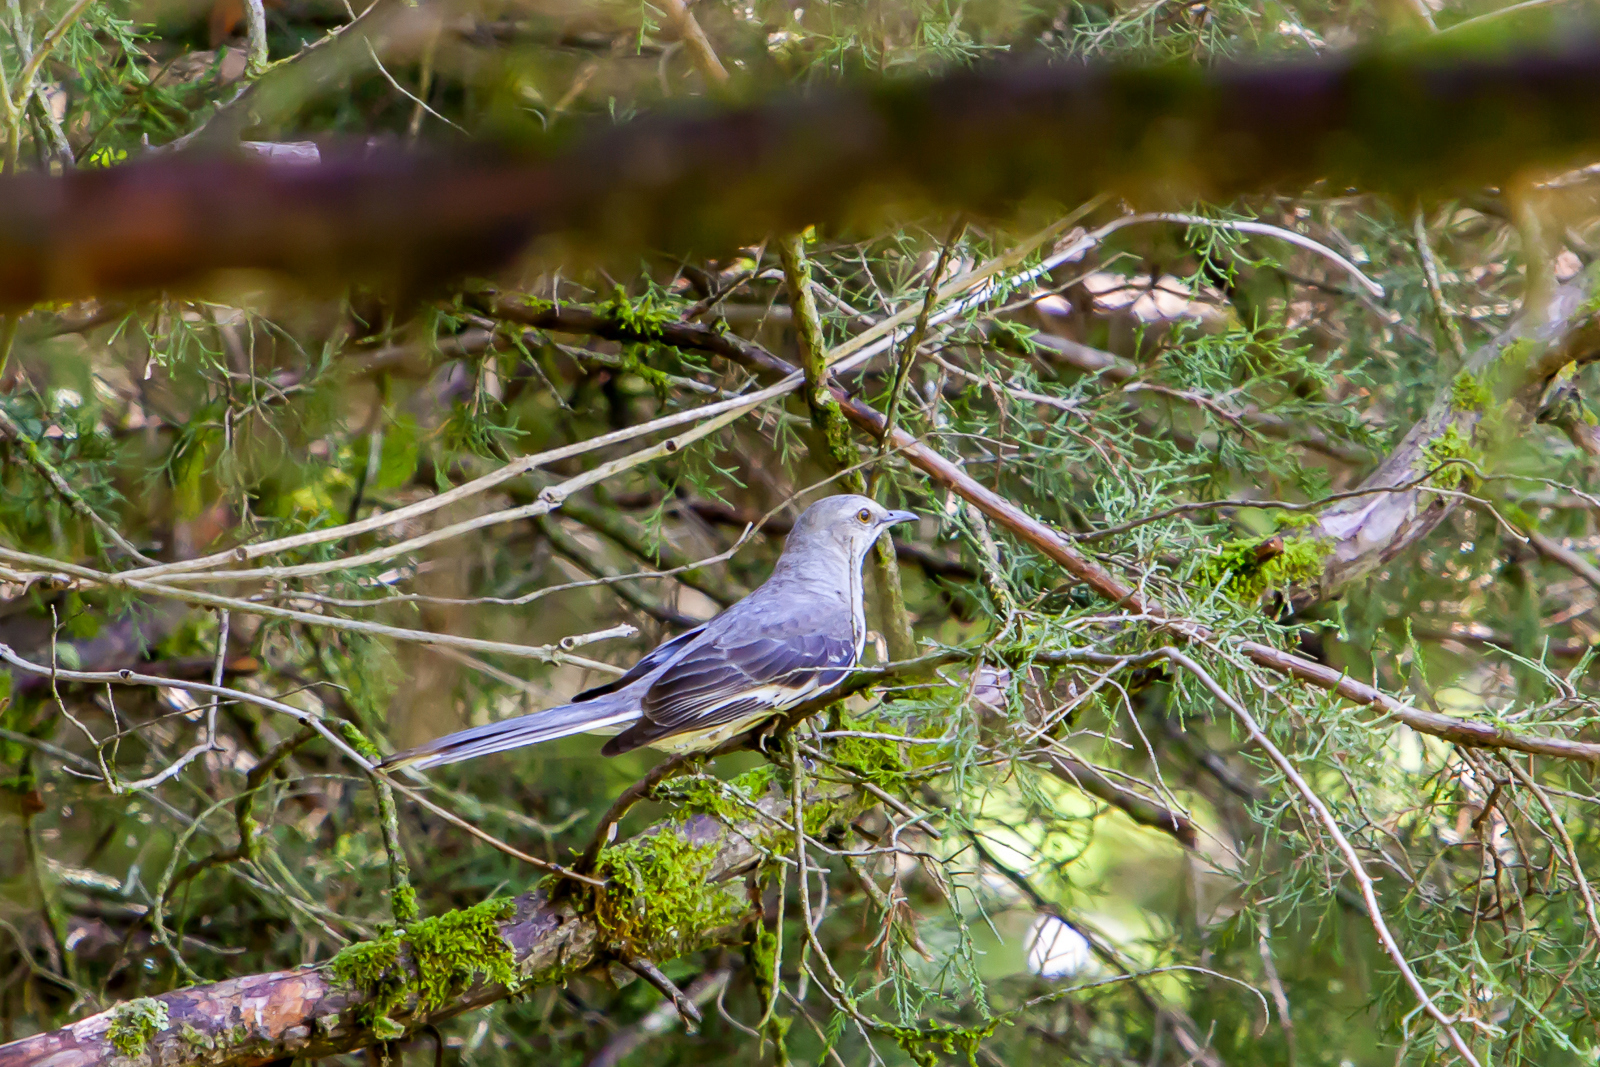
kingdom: Animalia
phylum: Chordata
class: Aves
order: Passeriformes
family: Mimidae
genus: Mimus
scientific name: Mimus polyglottos
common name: Northern mockingbird
